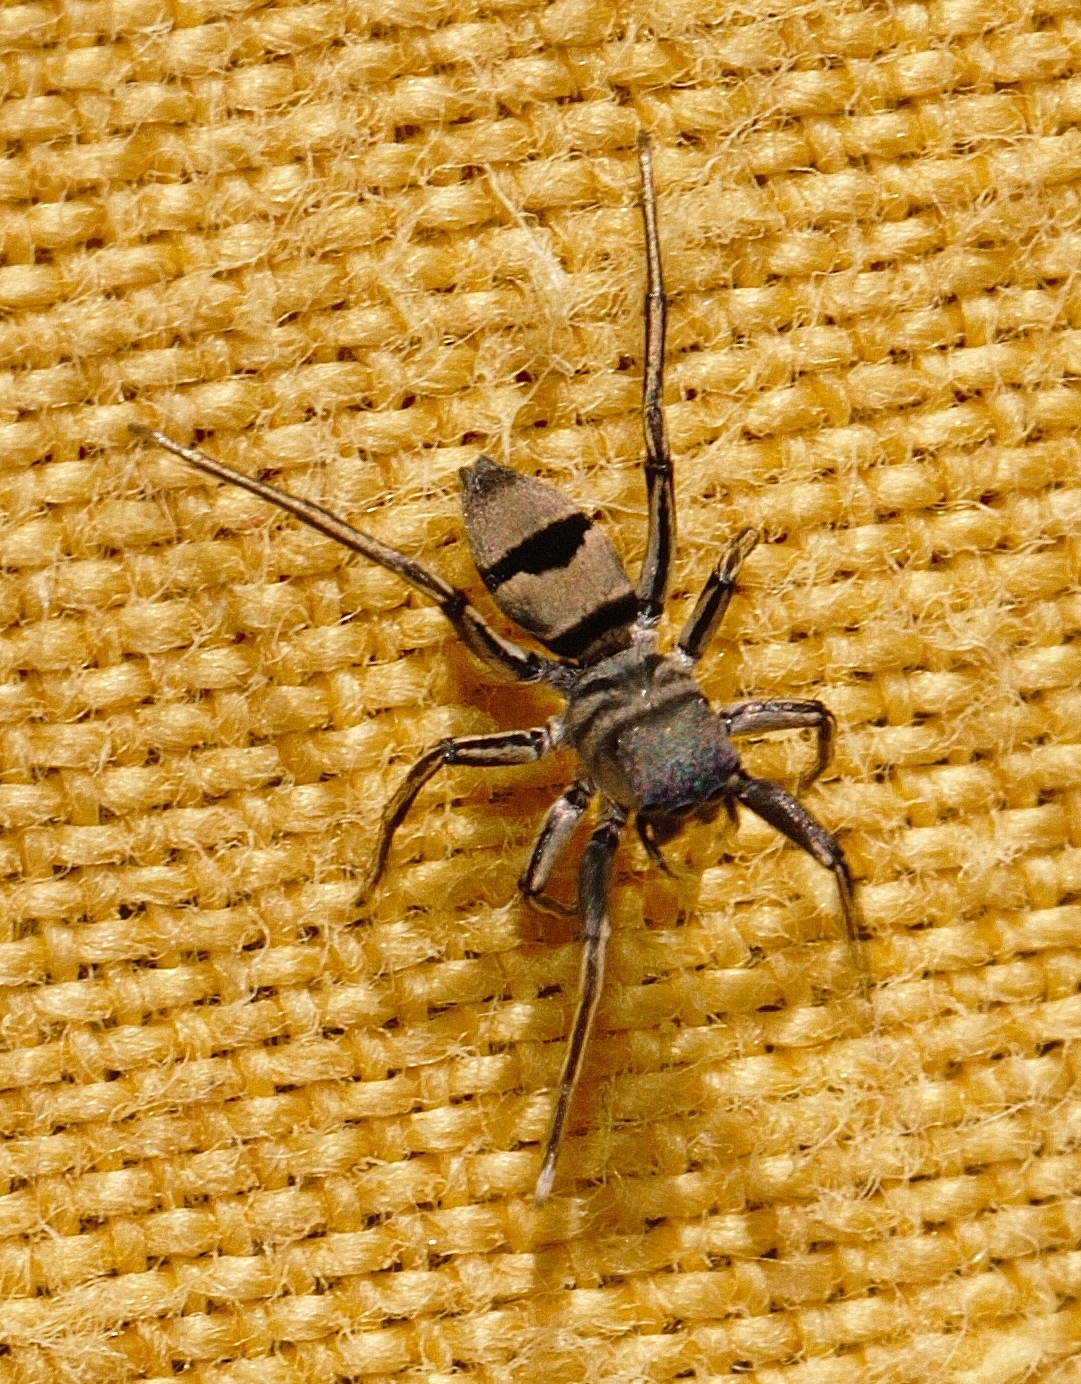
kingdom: Animalia
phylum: Arthropoda
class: Arachnida
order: Araneae
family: Salticidae
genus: Mexcala
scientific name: Mexcala elegans
